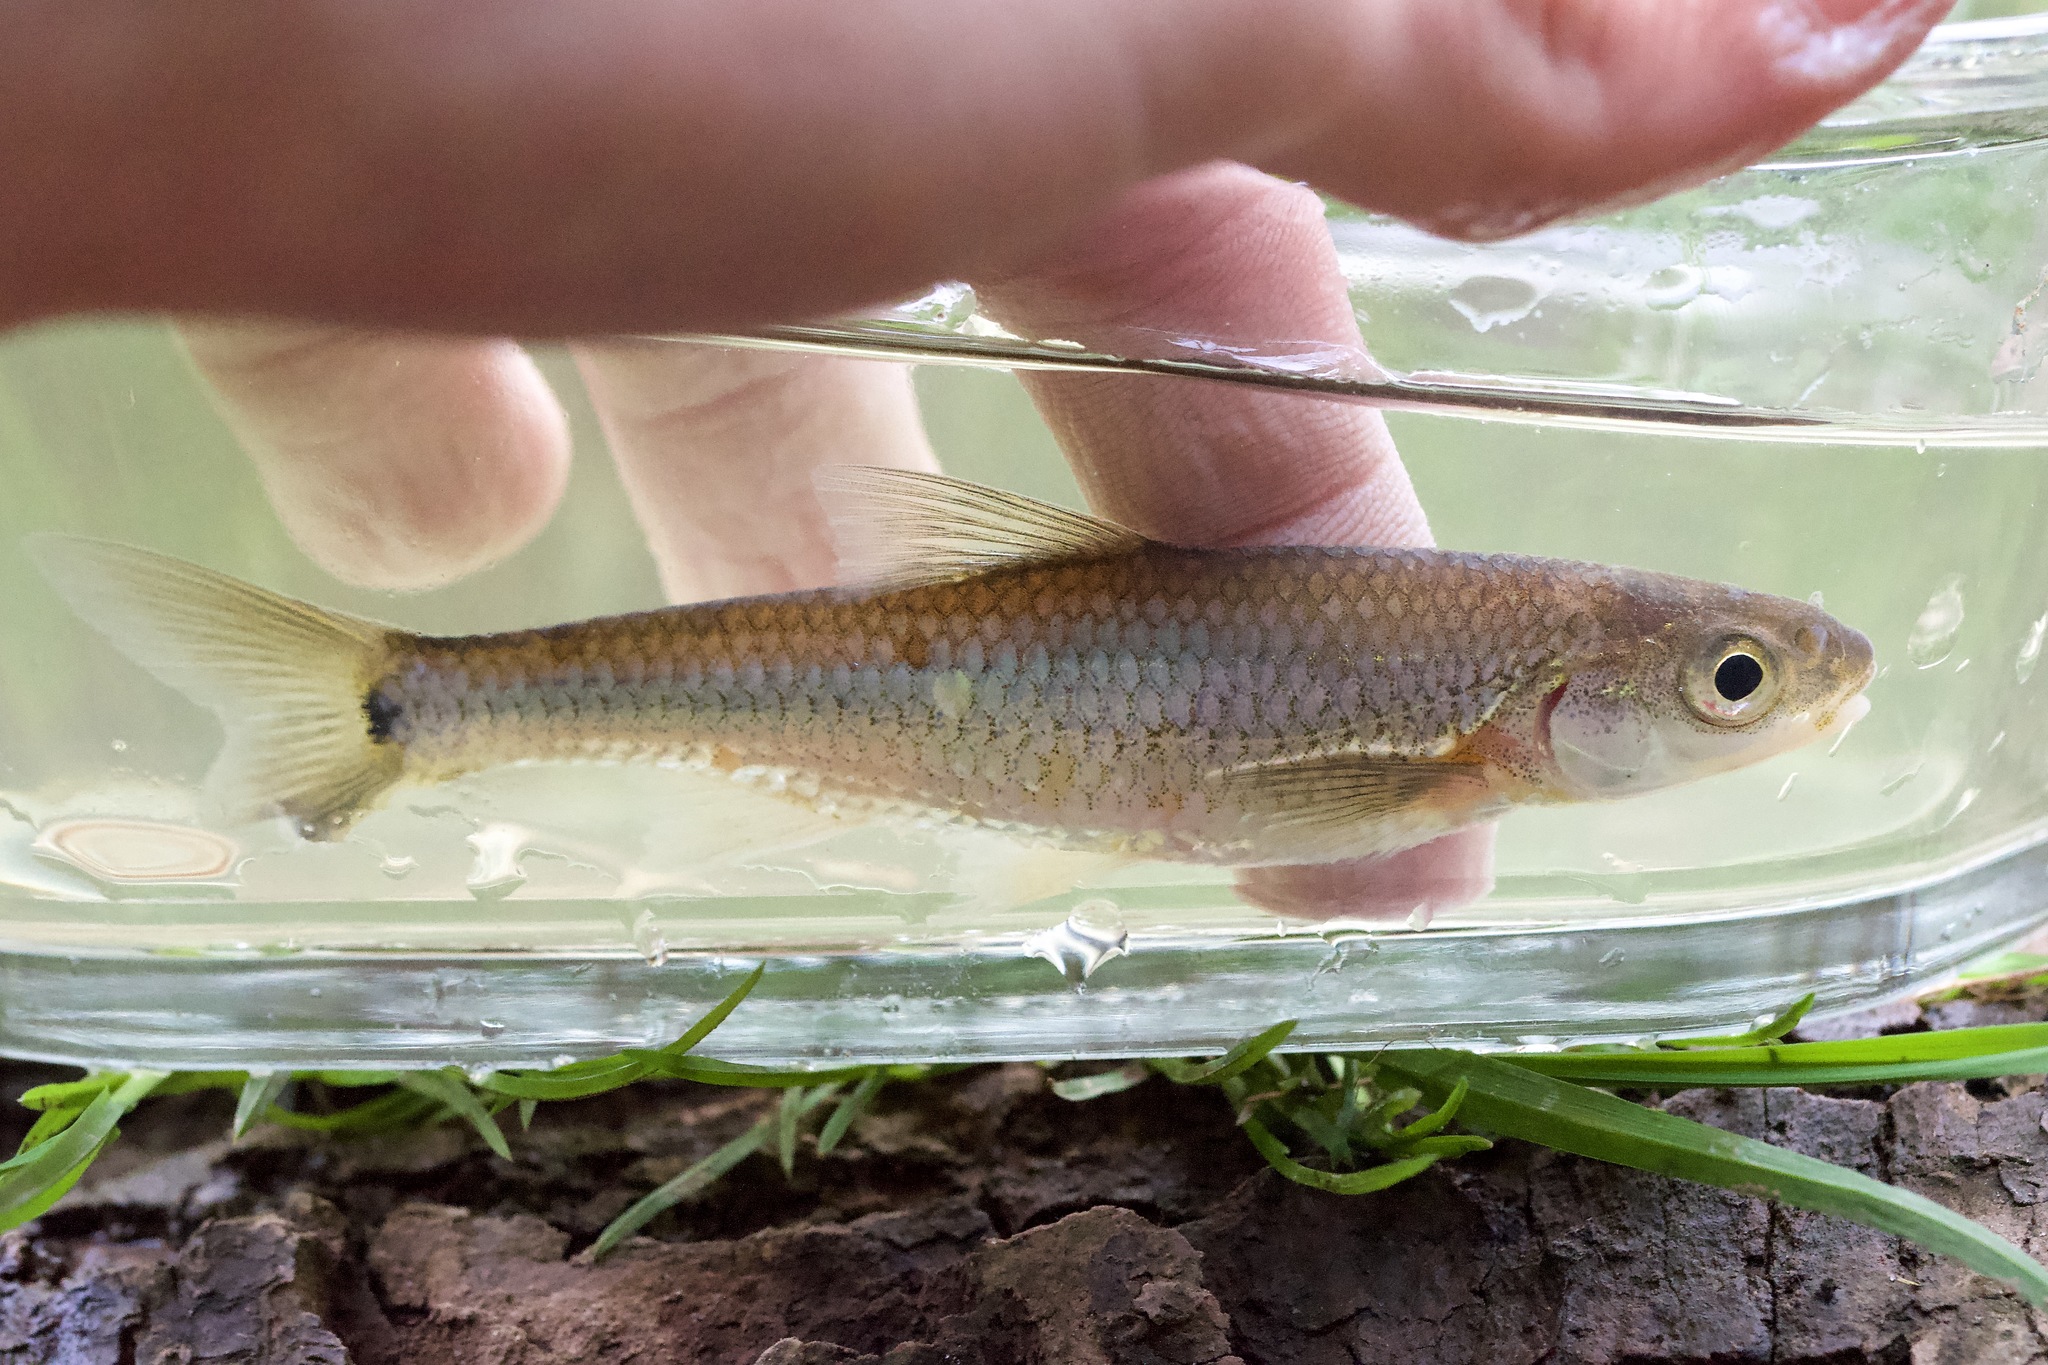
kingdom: Animalia
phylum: Chordata
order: Cypriniformes
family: Cyprinidae
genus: Notropis
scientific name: Notropis
